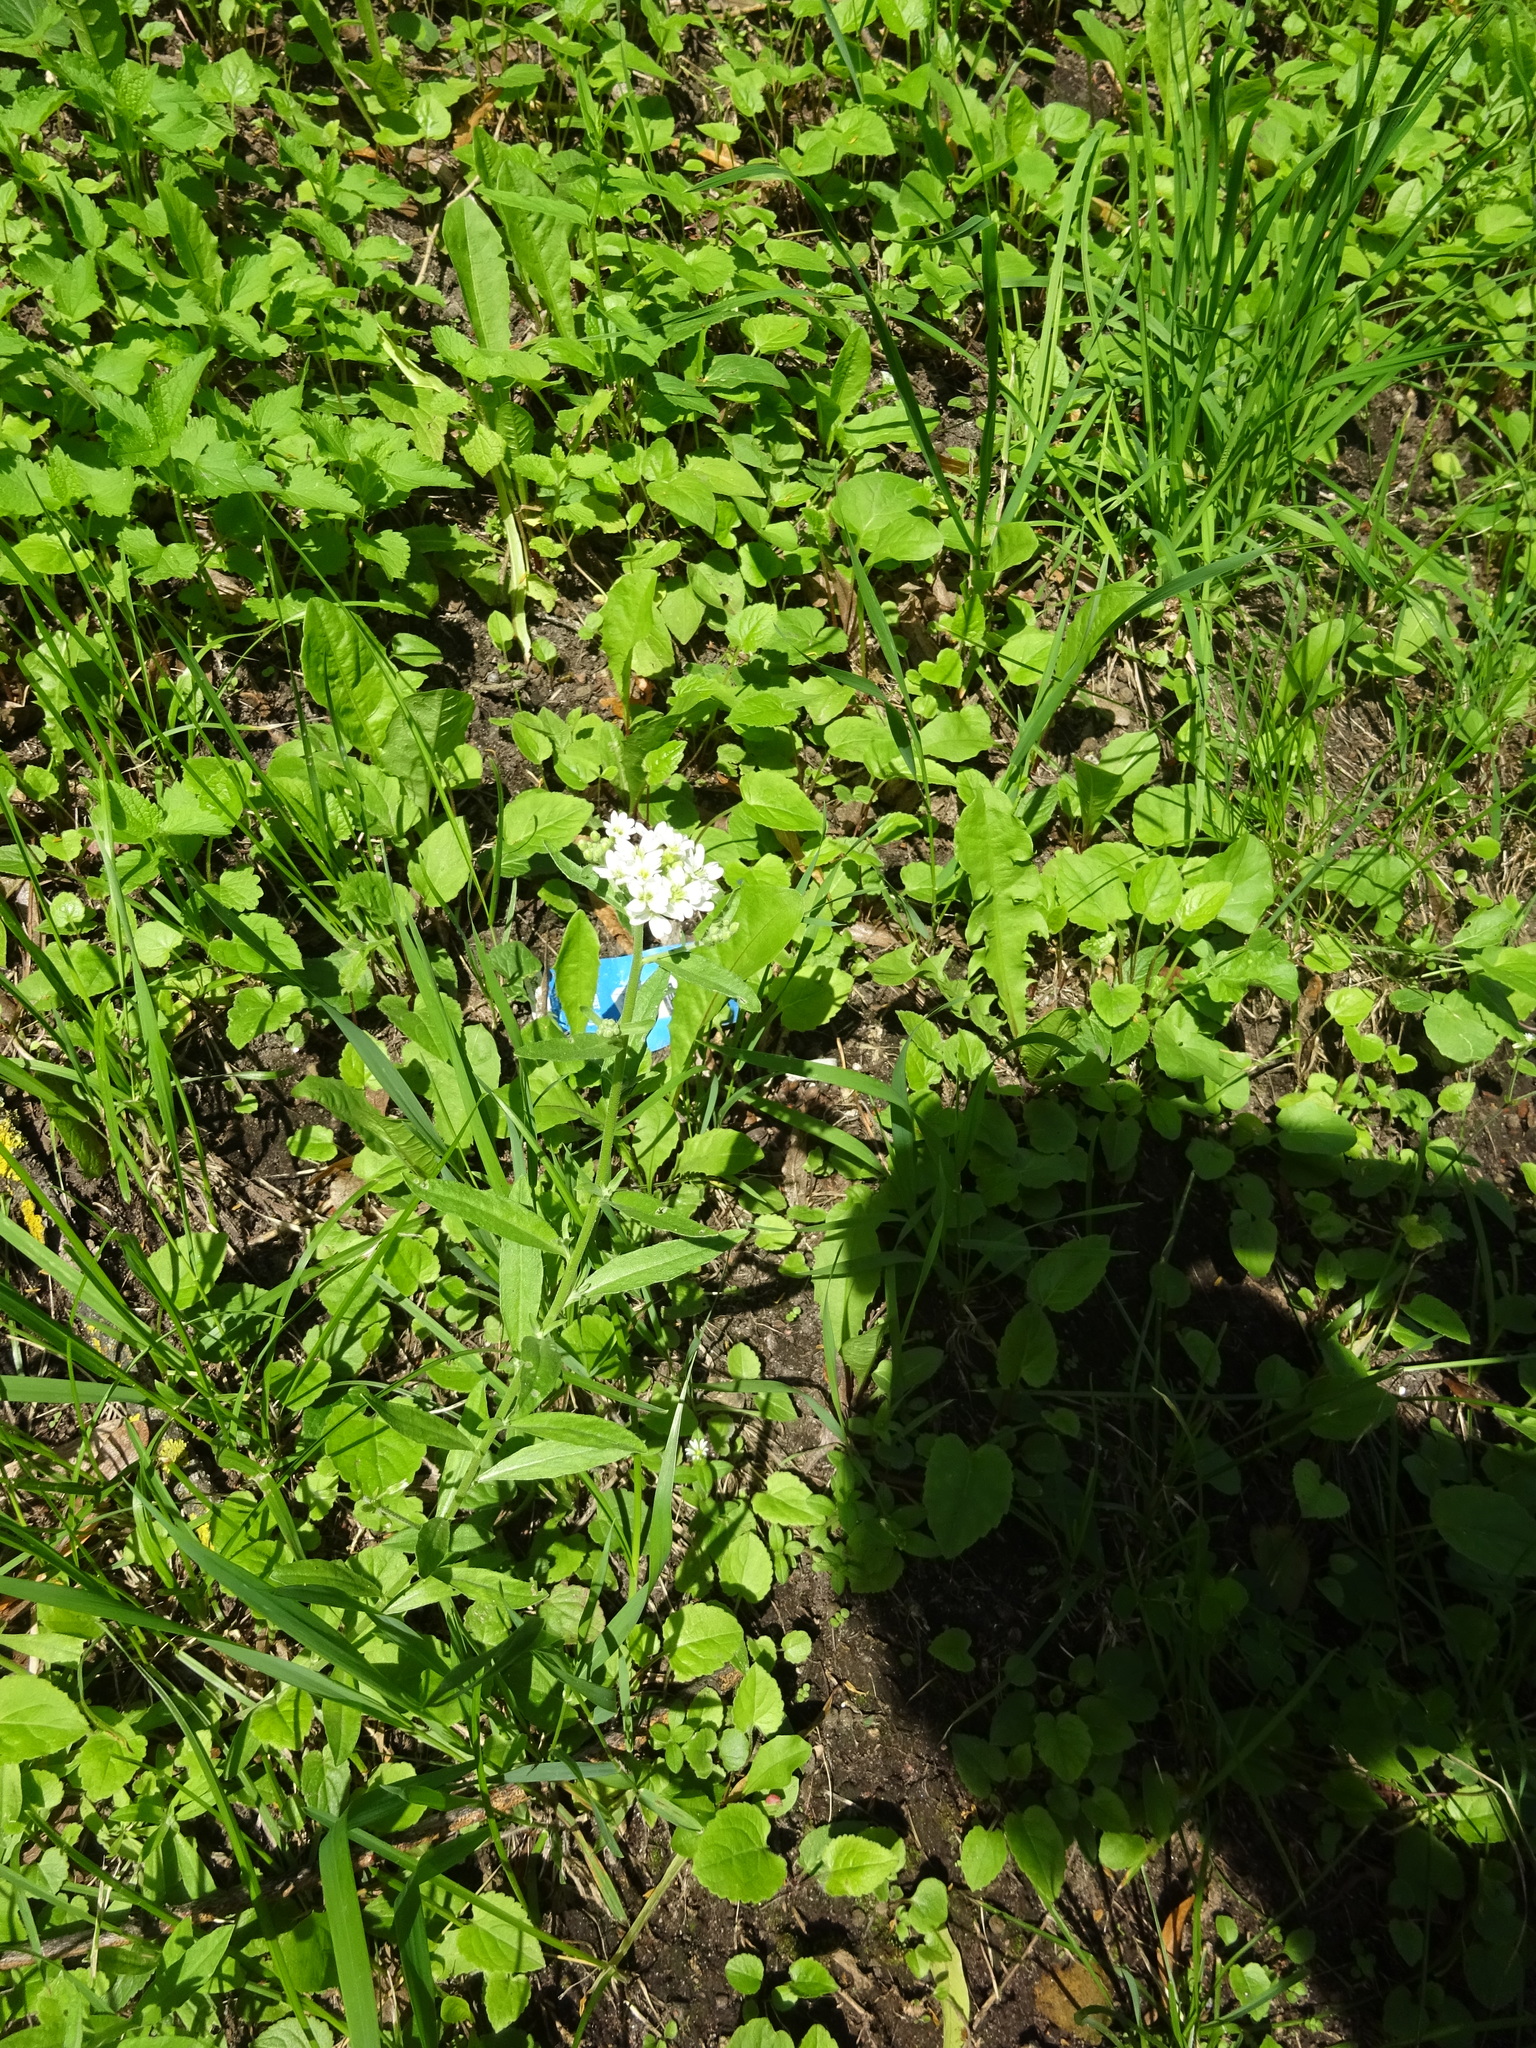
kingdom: Plantae
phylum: Tracheophyta
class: Magnoliopsida
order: Brassicales
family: Brassicaceae
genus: Berteroa
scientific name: Berteroa incana
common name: Hoary alison
